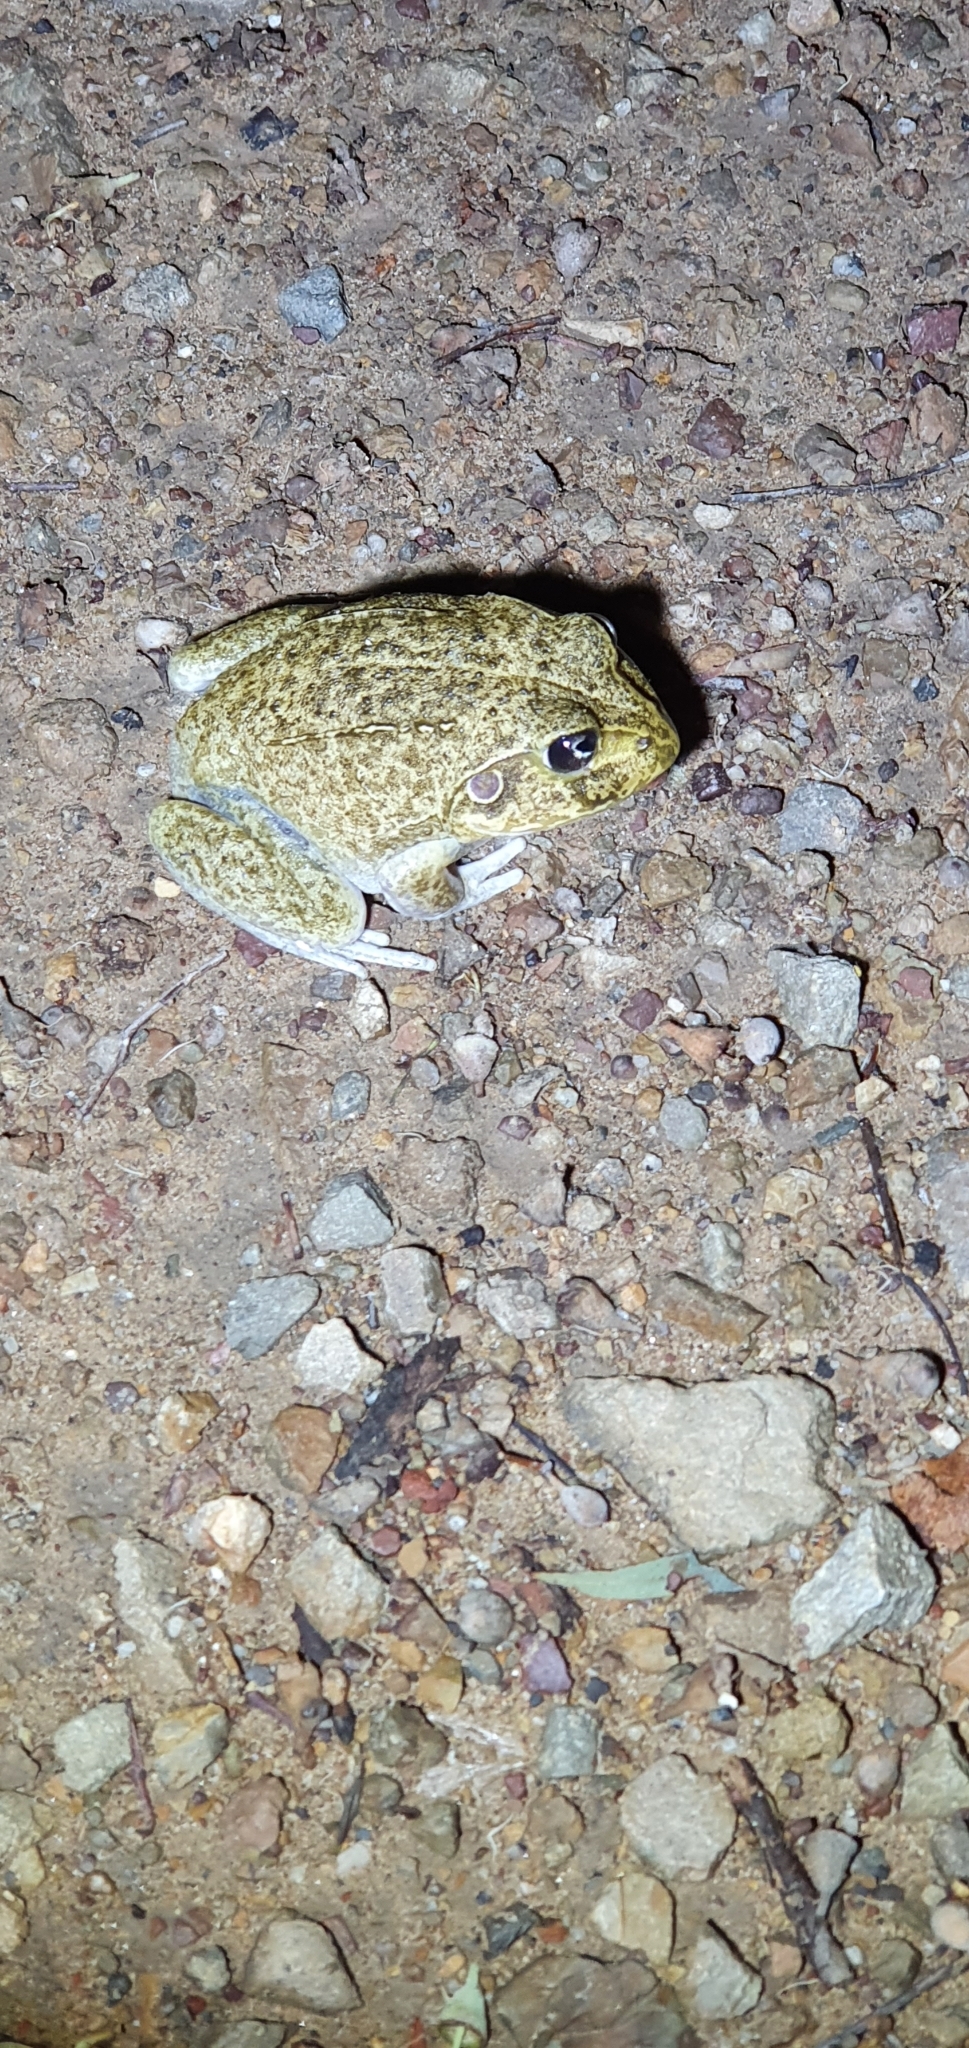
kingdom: Animalia
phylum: Chordata
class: Amphibia
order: Anura
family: Pelodryadidae
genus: Ranoidea
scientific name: Ranoidea novaehollandiae
